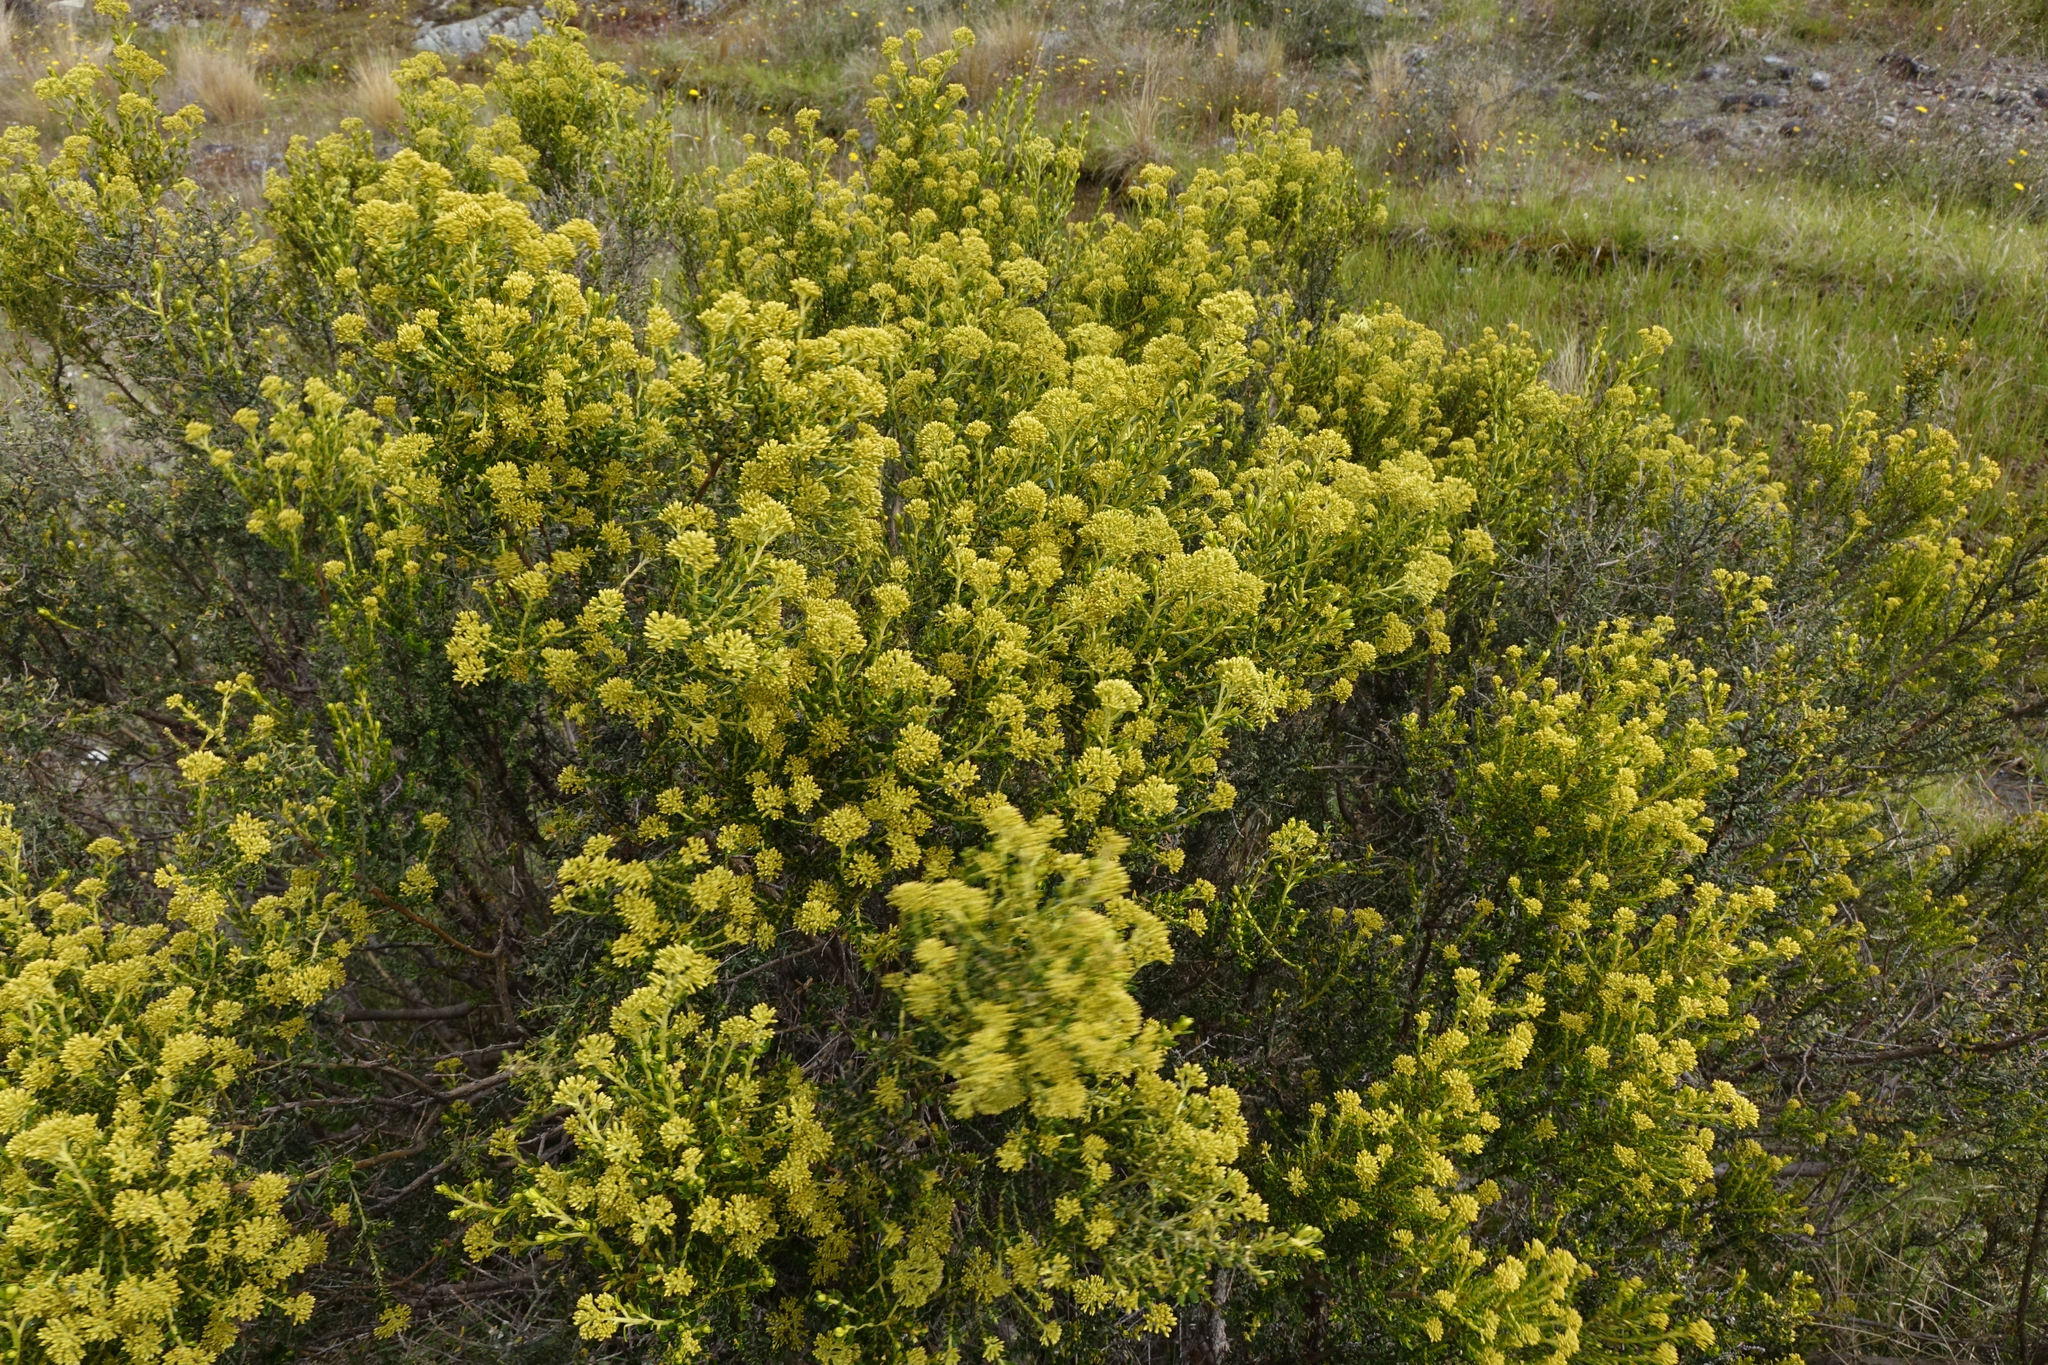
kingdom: Plantae
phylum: Tracheophyta
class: Magnoliopsida
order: Asterales
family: Asteraceae
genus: Ozothamnus
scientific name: Ozothamnus leptophyllus
